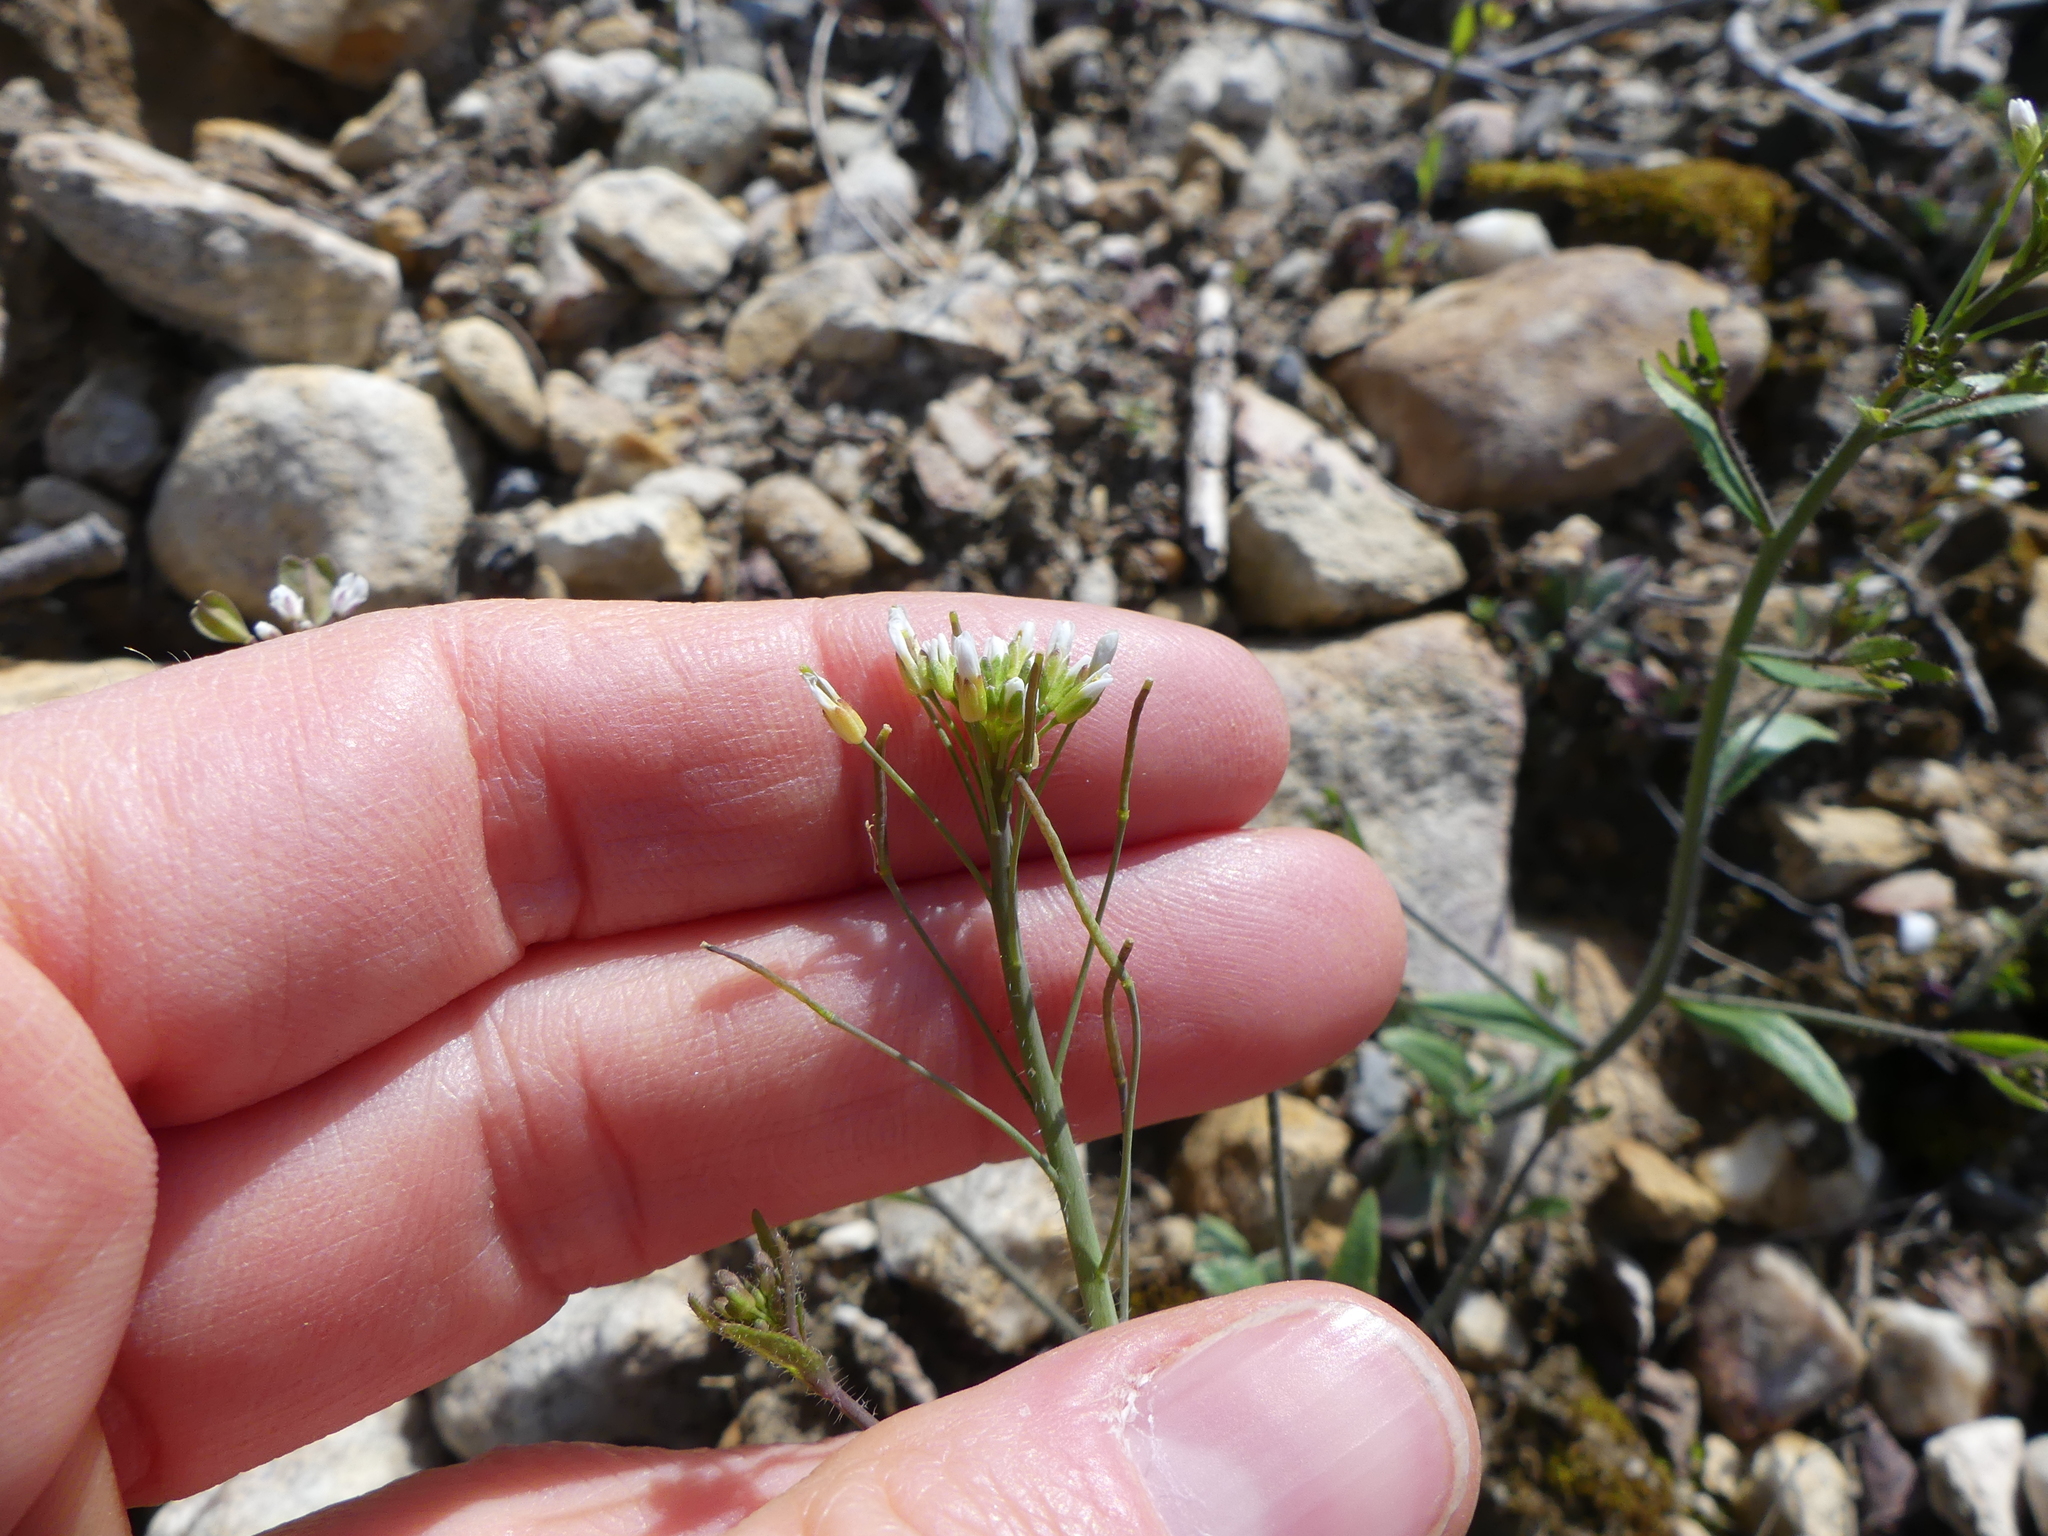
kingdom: Plantae
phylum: Tracheophyta
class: Magnoliopsida
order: Brassicales
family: Brassicaceae
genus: Arabidopsis
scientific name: Arabidopsis thaliana
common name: Thale cress
